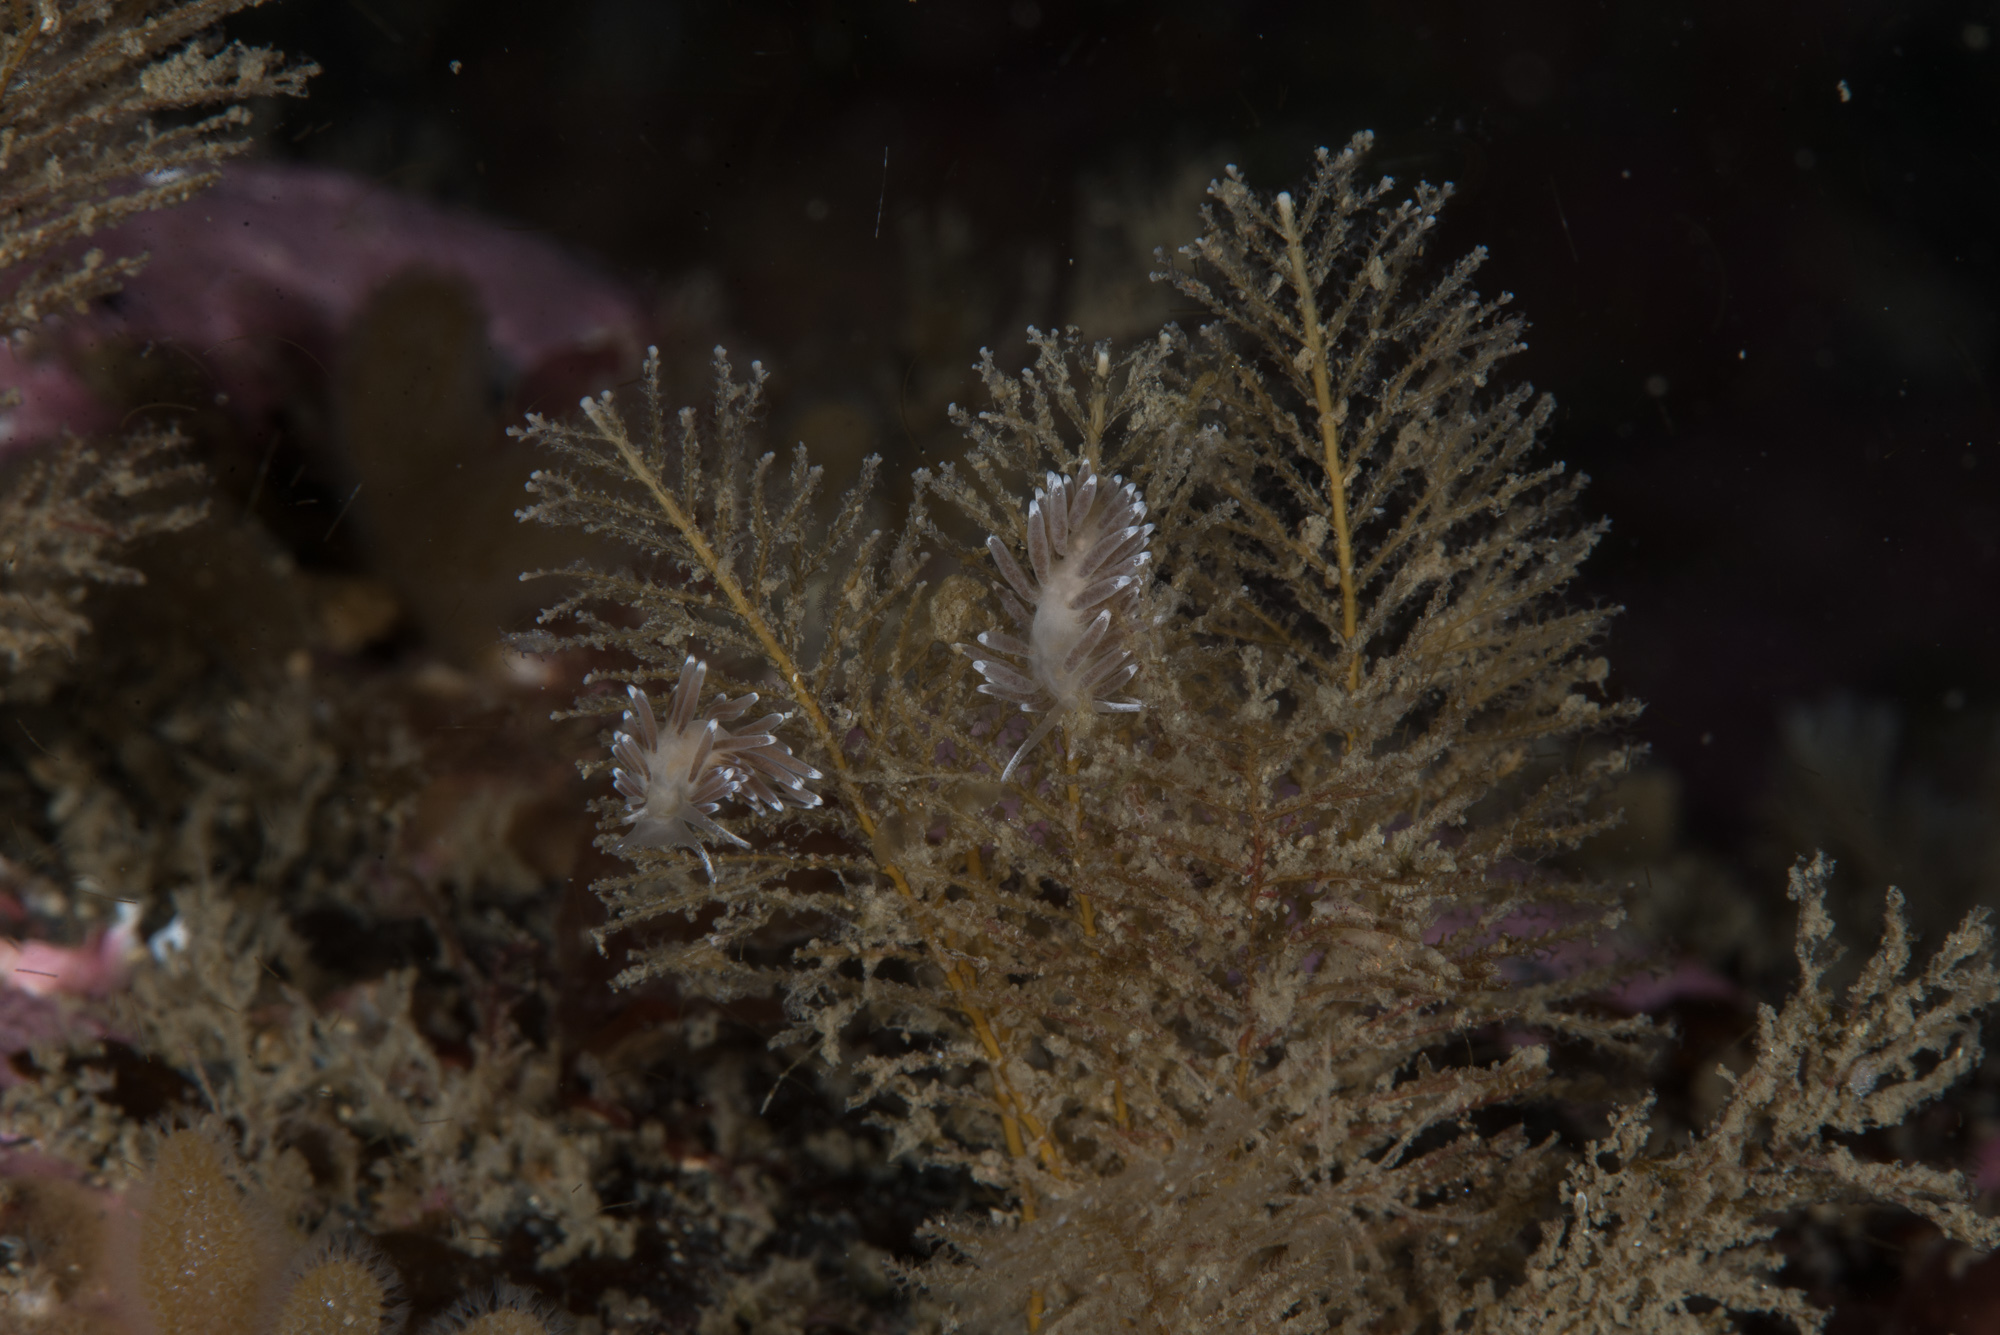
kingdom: Animalia
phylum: Mollusca
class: Gastropoda
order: Nudibranchia
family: Cuthonellidae
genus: Cuthonella
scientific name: Cuthonella concinna
